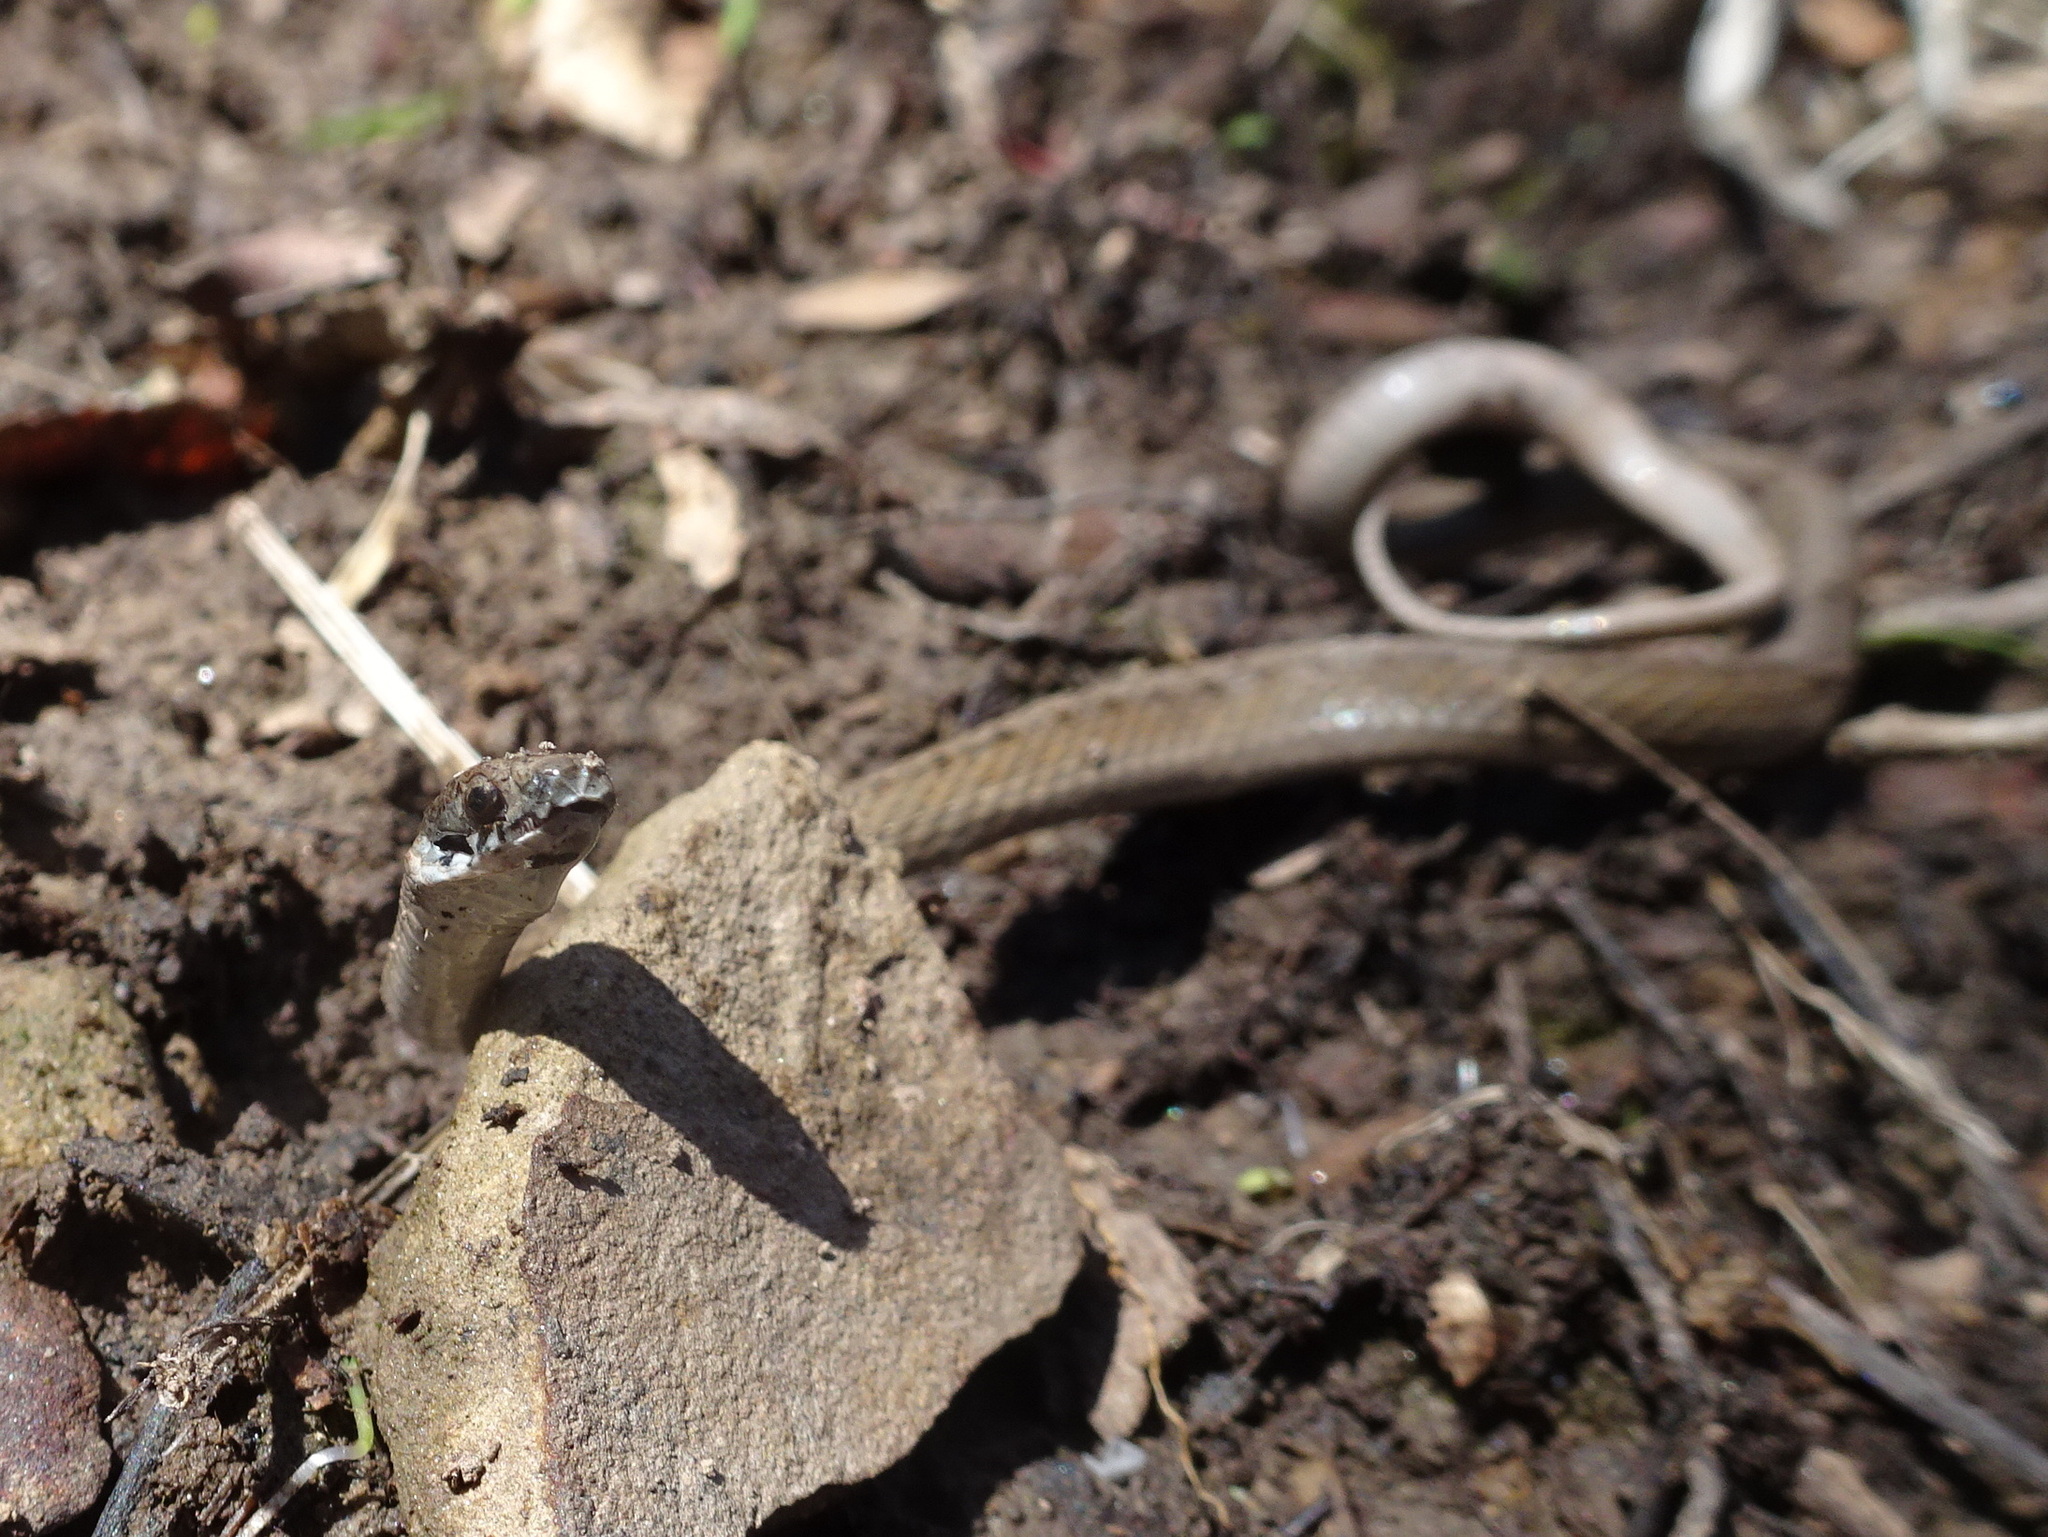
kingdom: Animalia
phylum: Chordata
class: Squamata
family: Colubridae
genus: Storeria
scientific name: Storeria dekayi
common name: (dekay’s) brown snake
